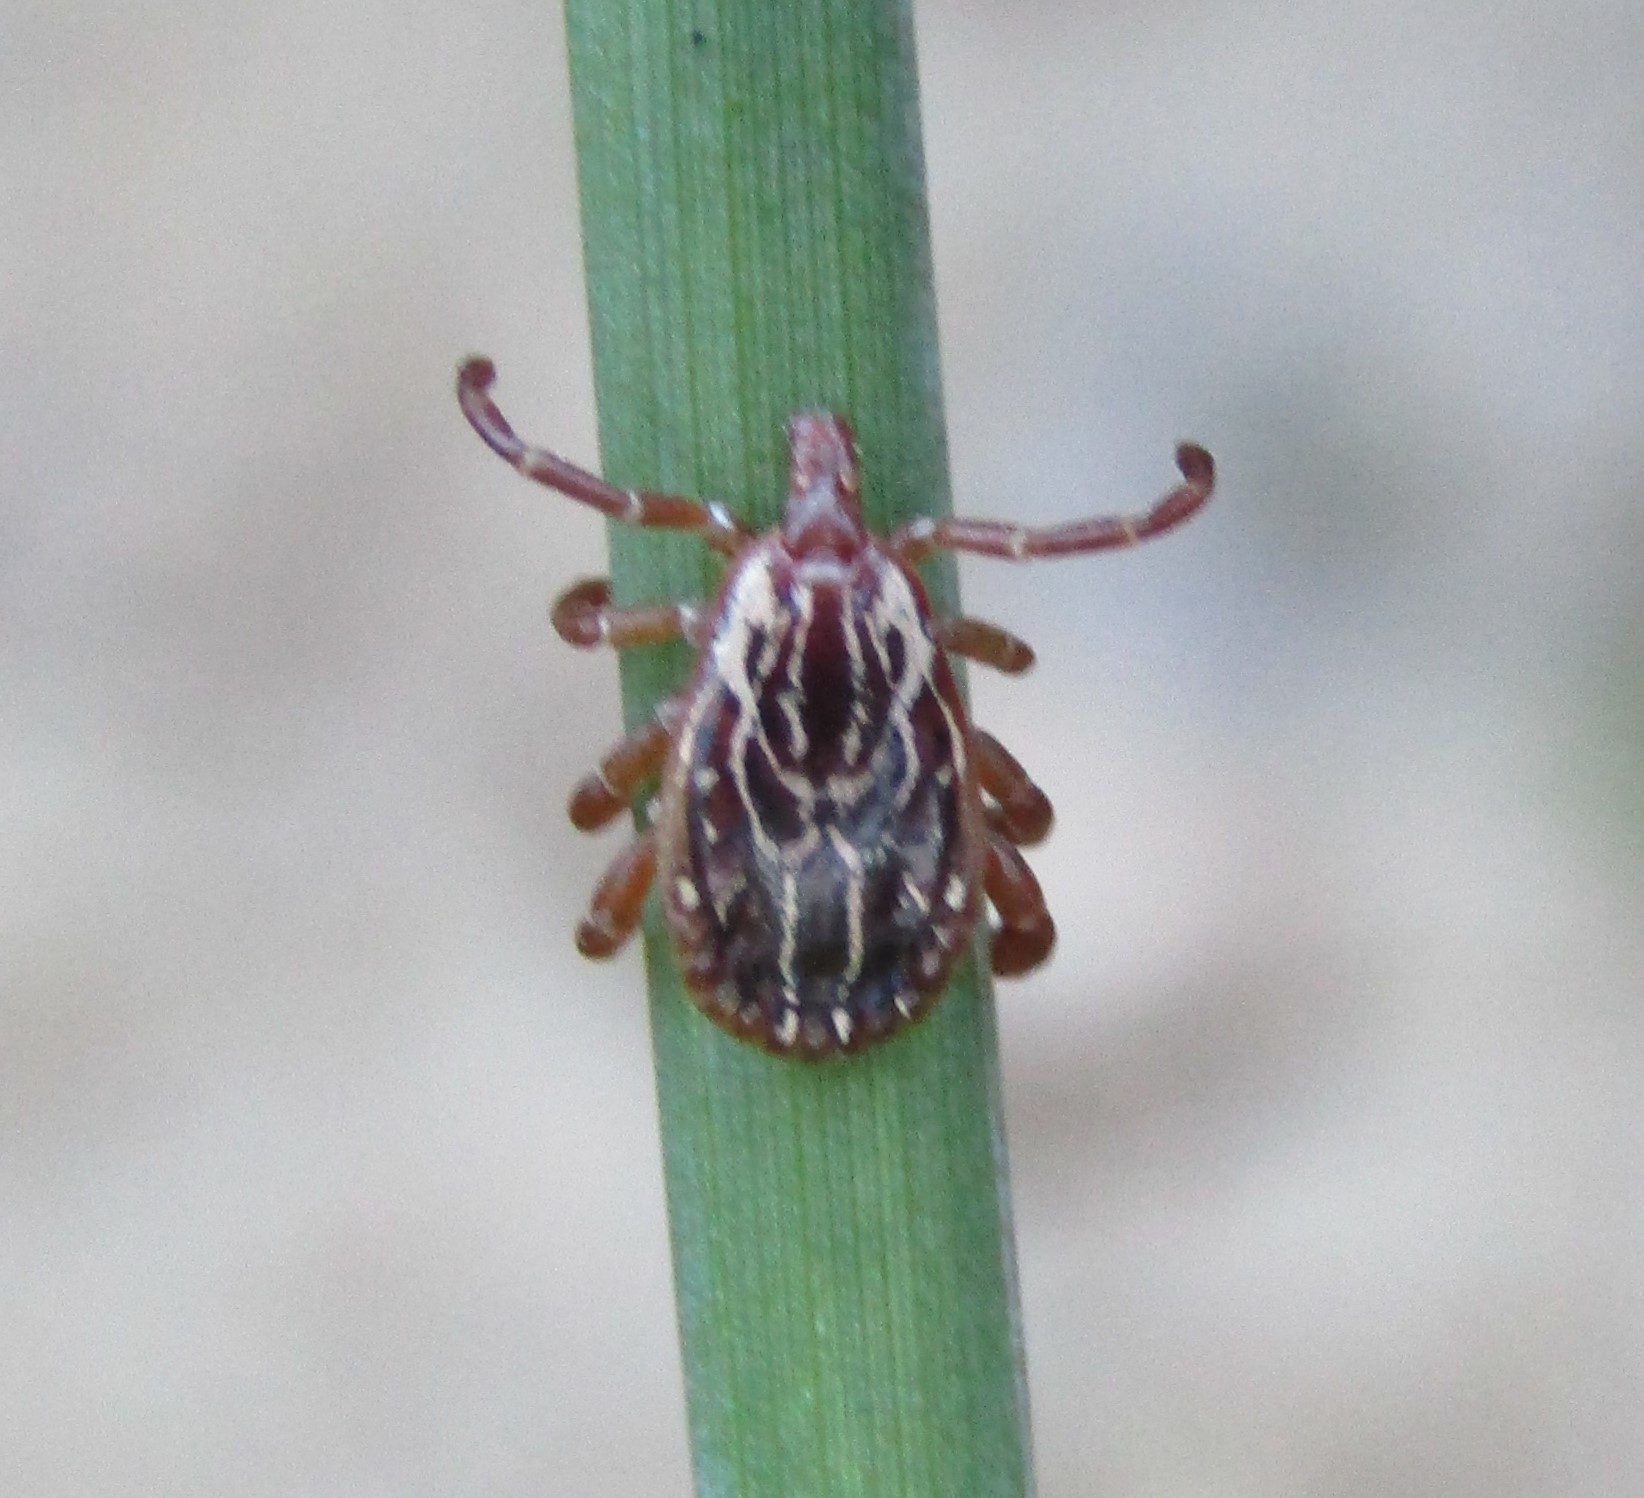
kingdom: Animalia
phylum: Arthropoda
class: Arachnida
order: Ixodida
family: Ixodidae
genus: Amblyomma
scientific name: Amblyomma maculatum
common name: Gulf coast tick
